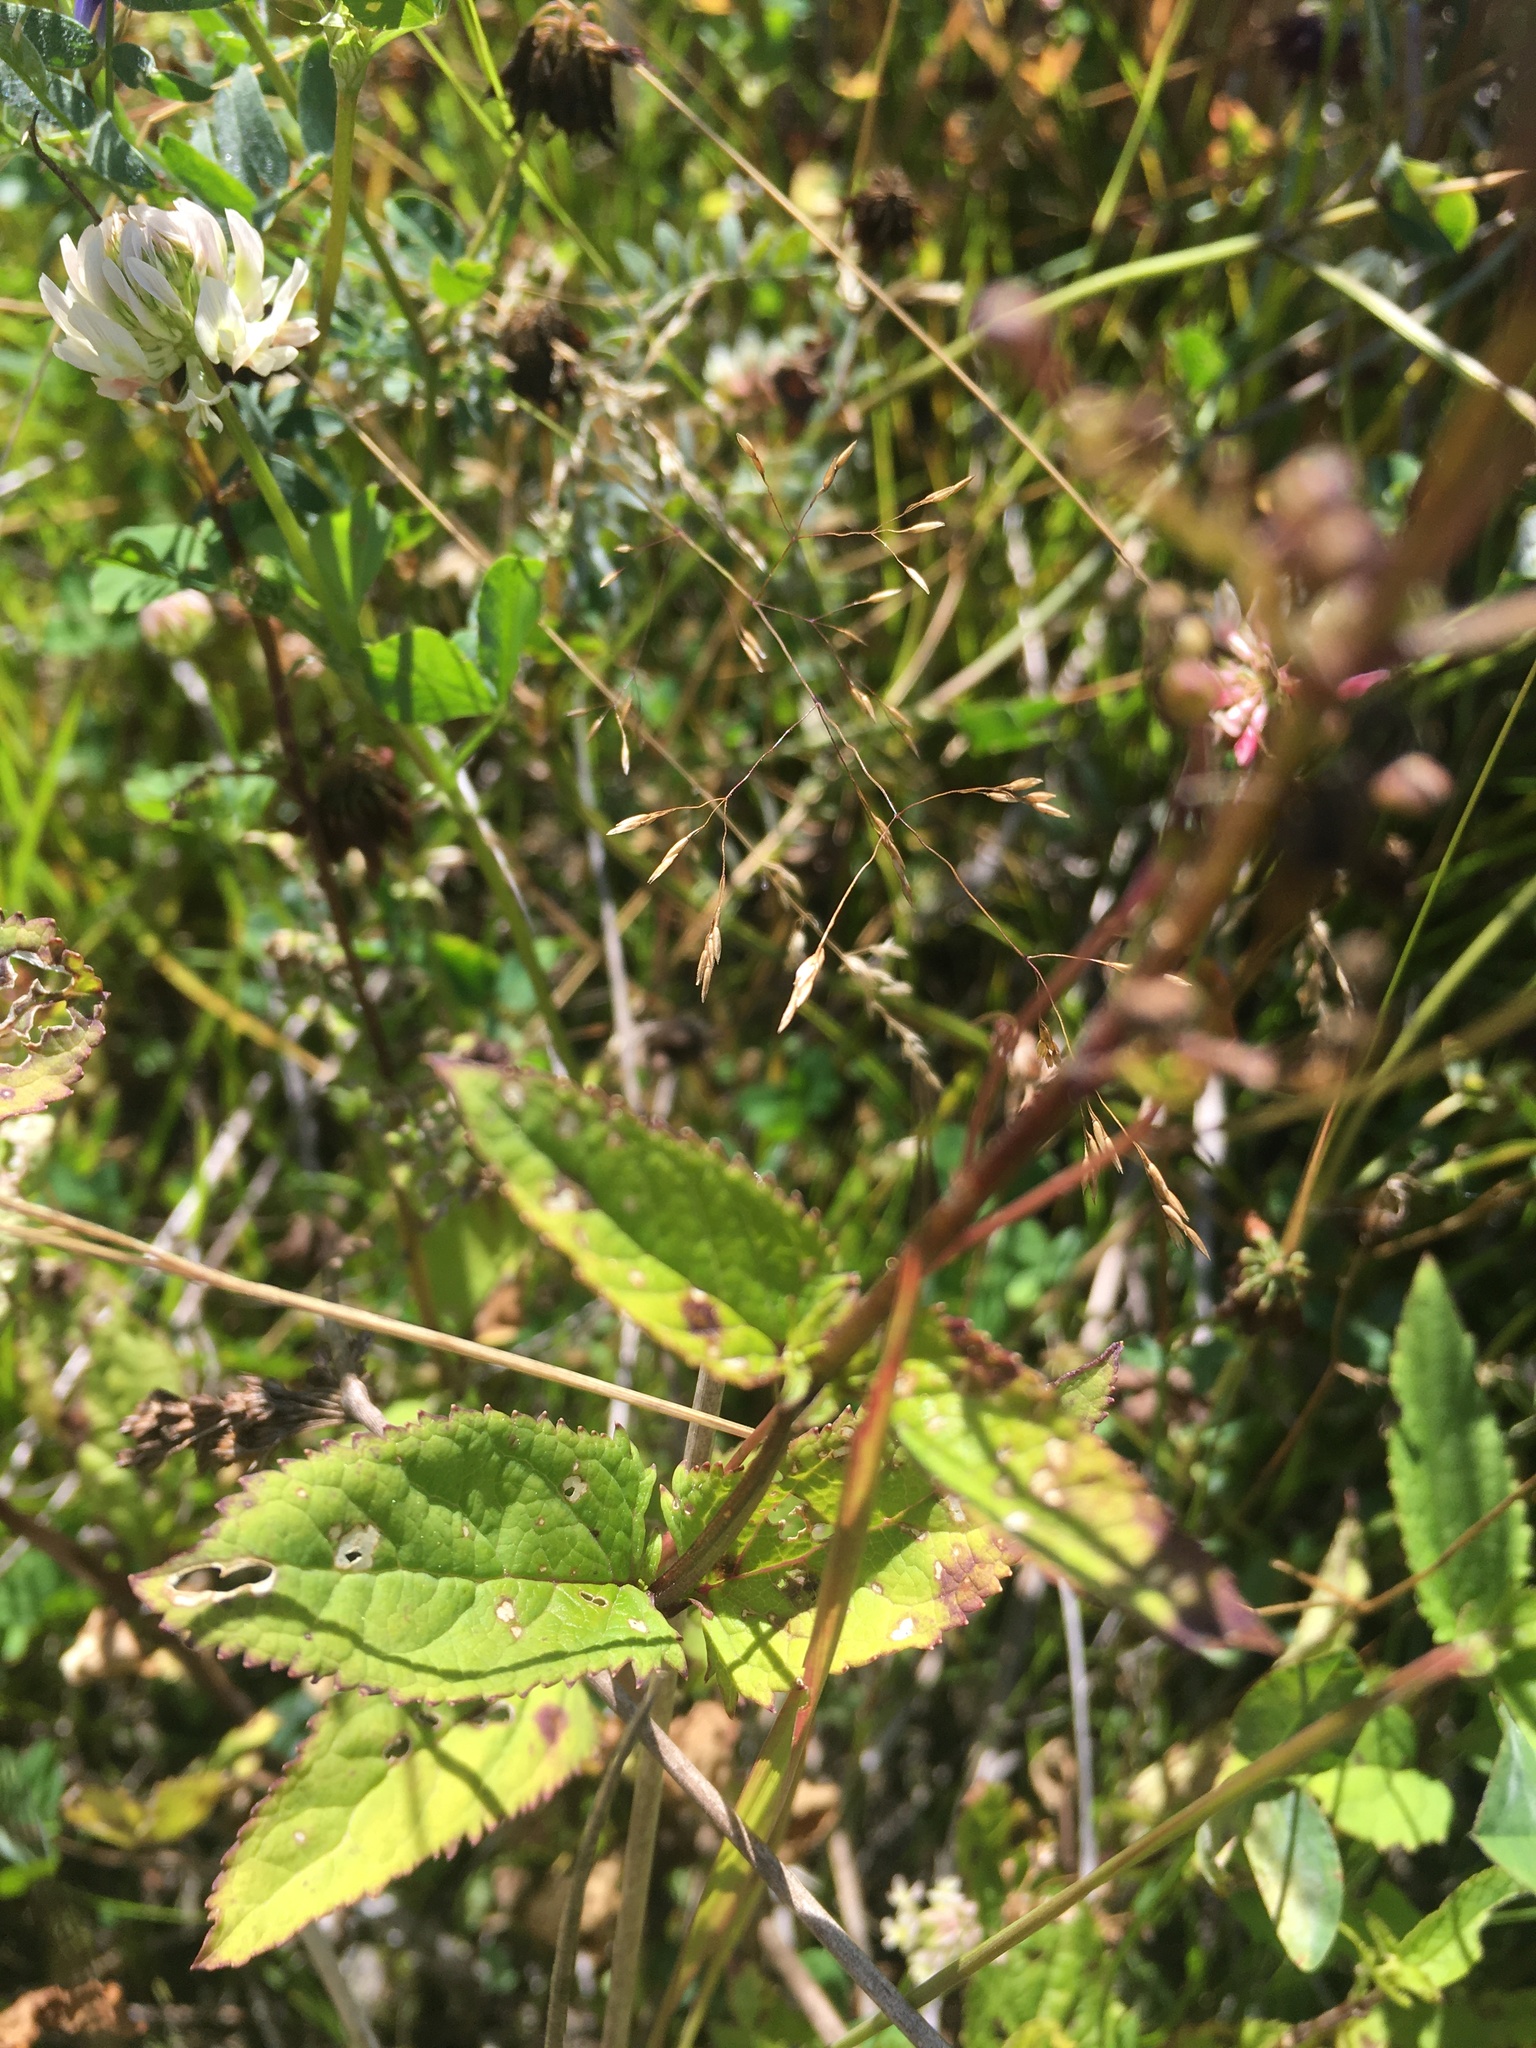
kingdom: Plantae
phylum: Tracheophyta
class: Magnoliopsida
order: Asterales
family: Campanulaceae
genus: Campanula
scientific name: Campanula patula
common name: Spreading bellflower
